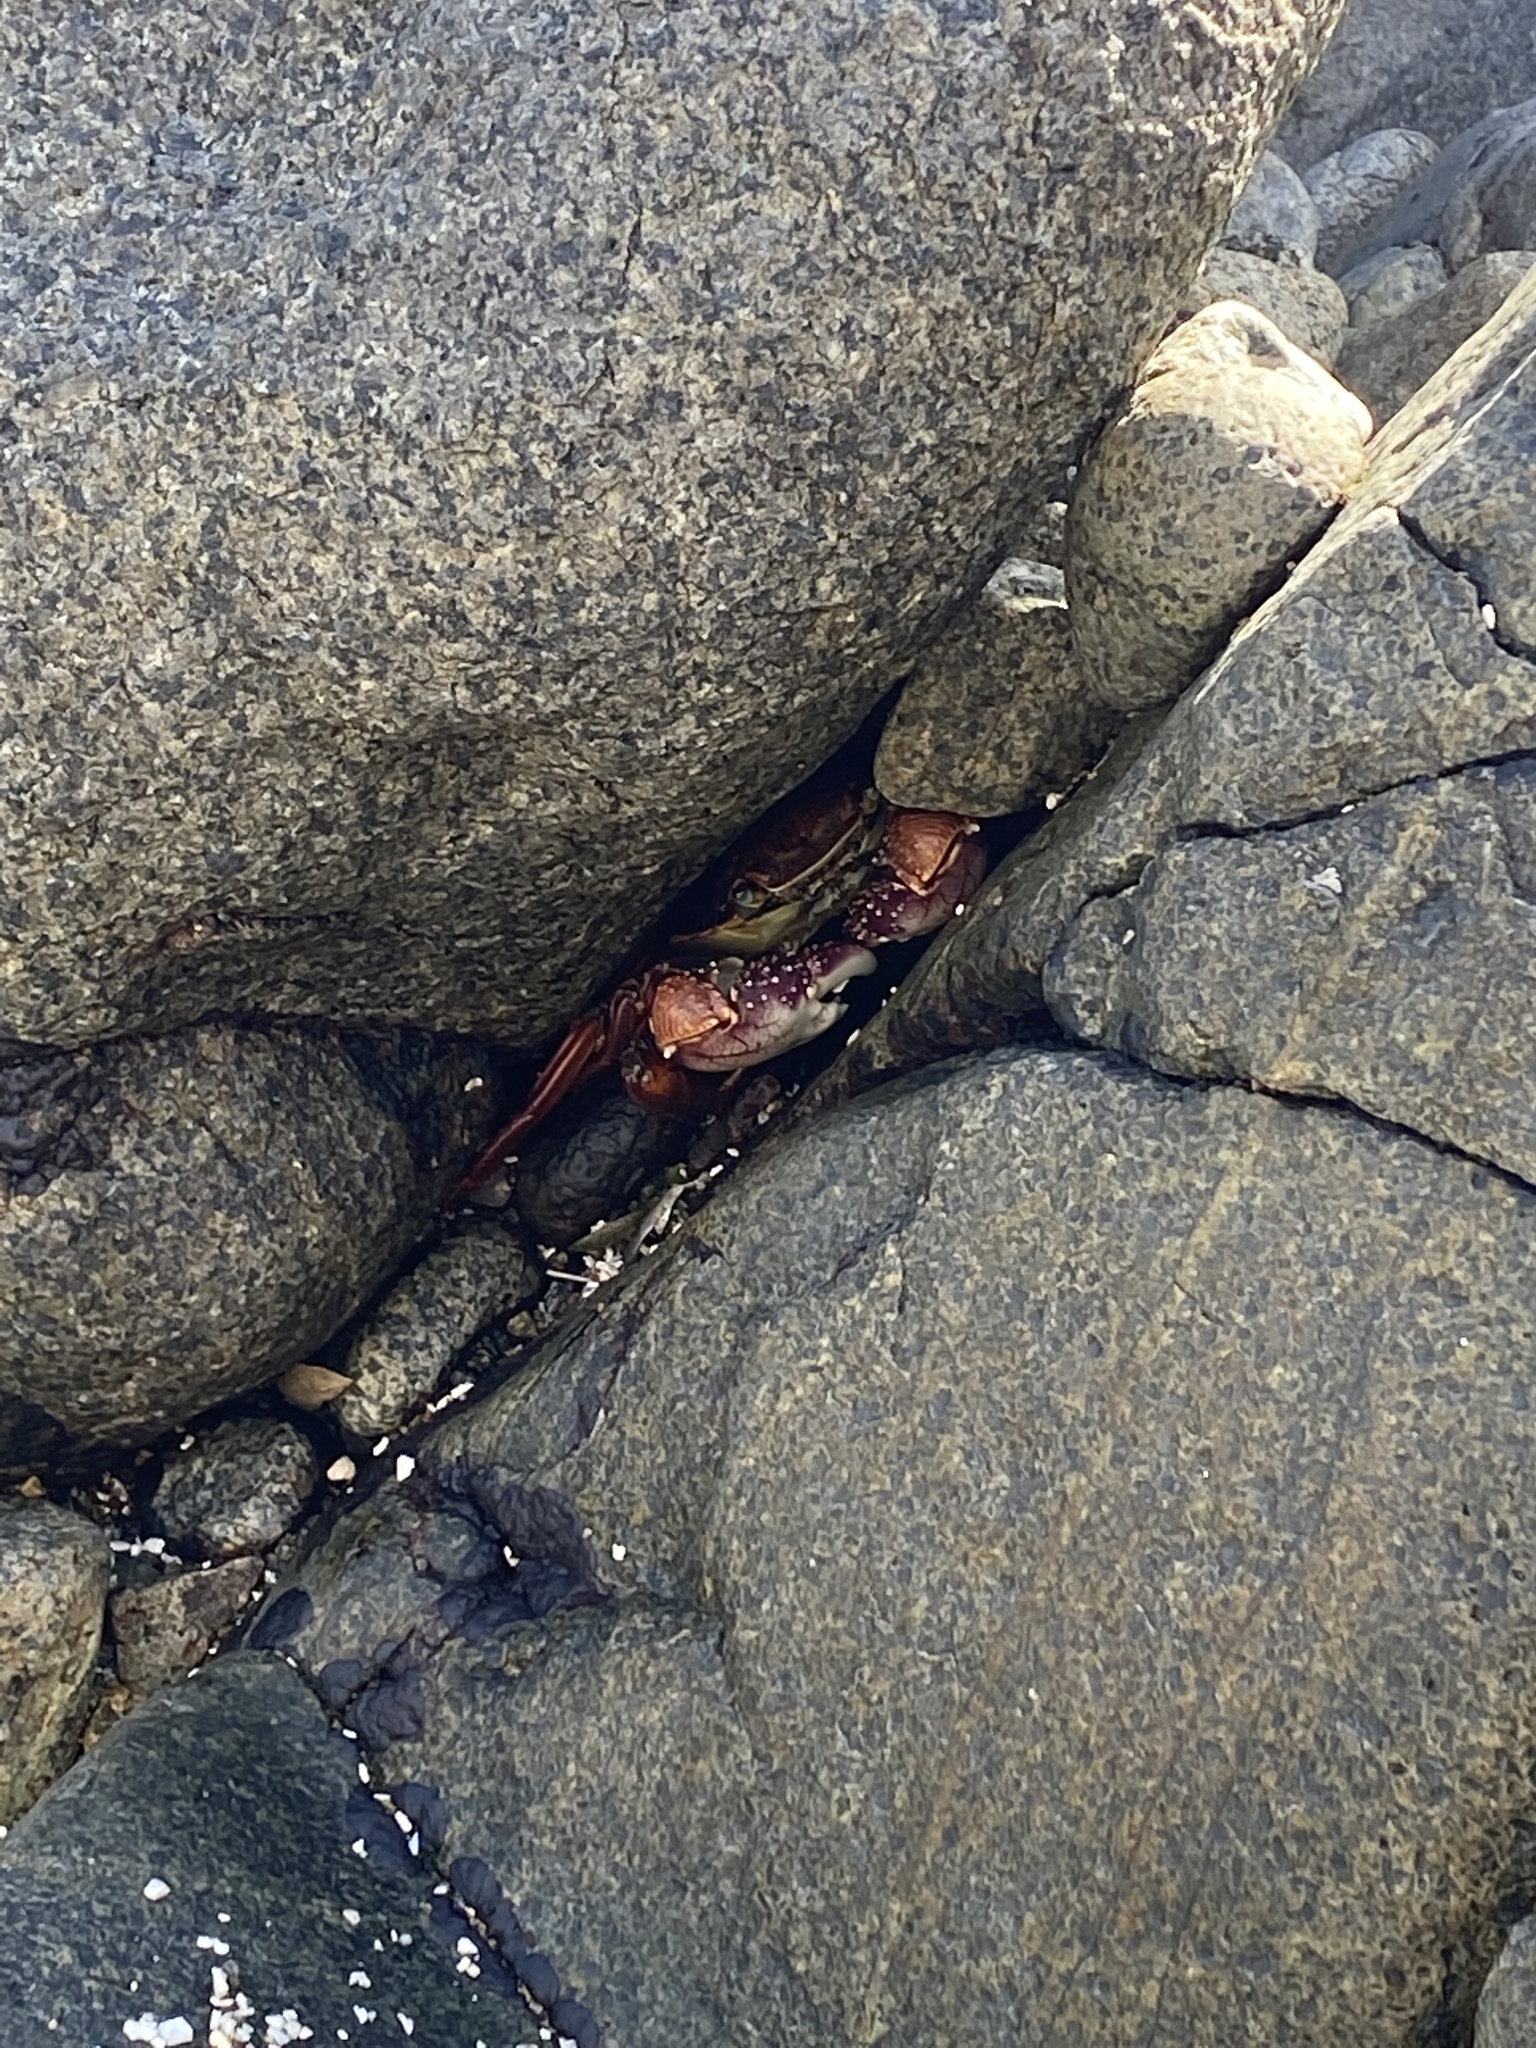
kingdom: Animalia
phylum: Arthropoda
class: Malacostraca
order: Decapoda
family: Grapsidae
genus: Leptograpsus
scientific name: Leptograpsus variegatus
